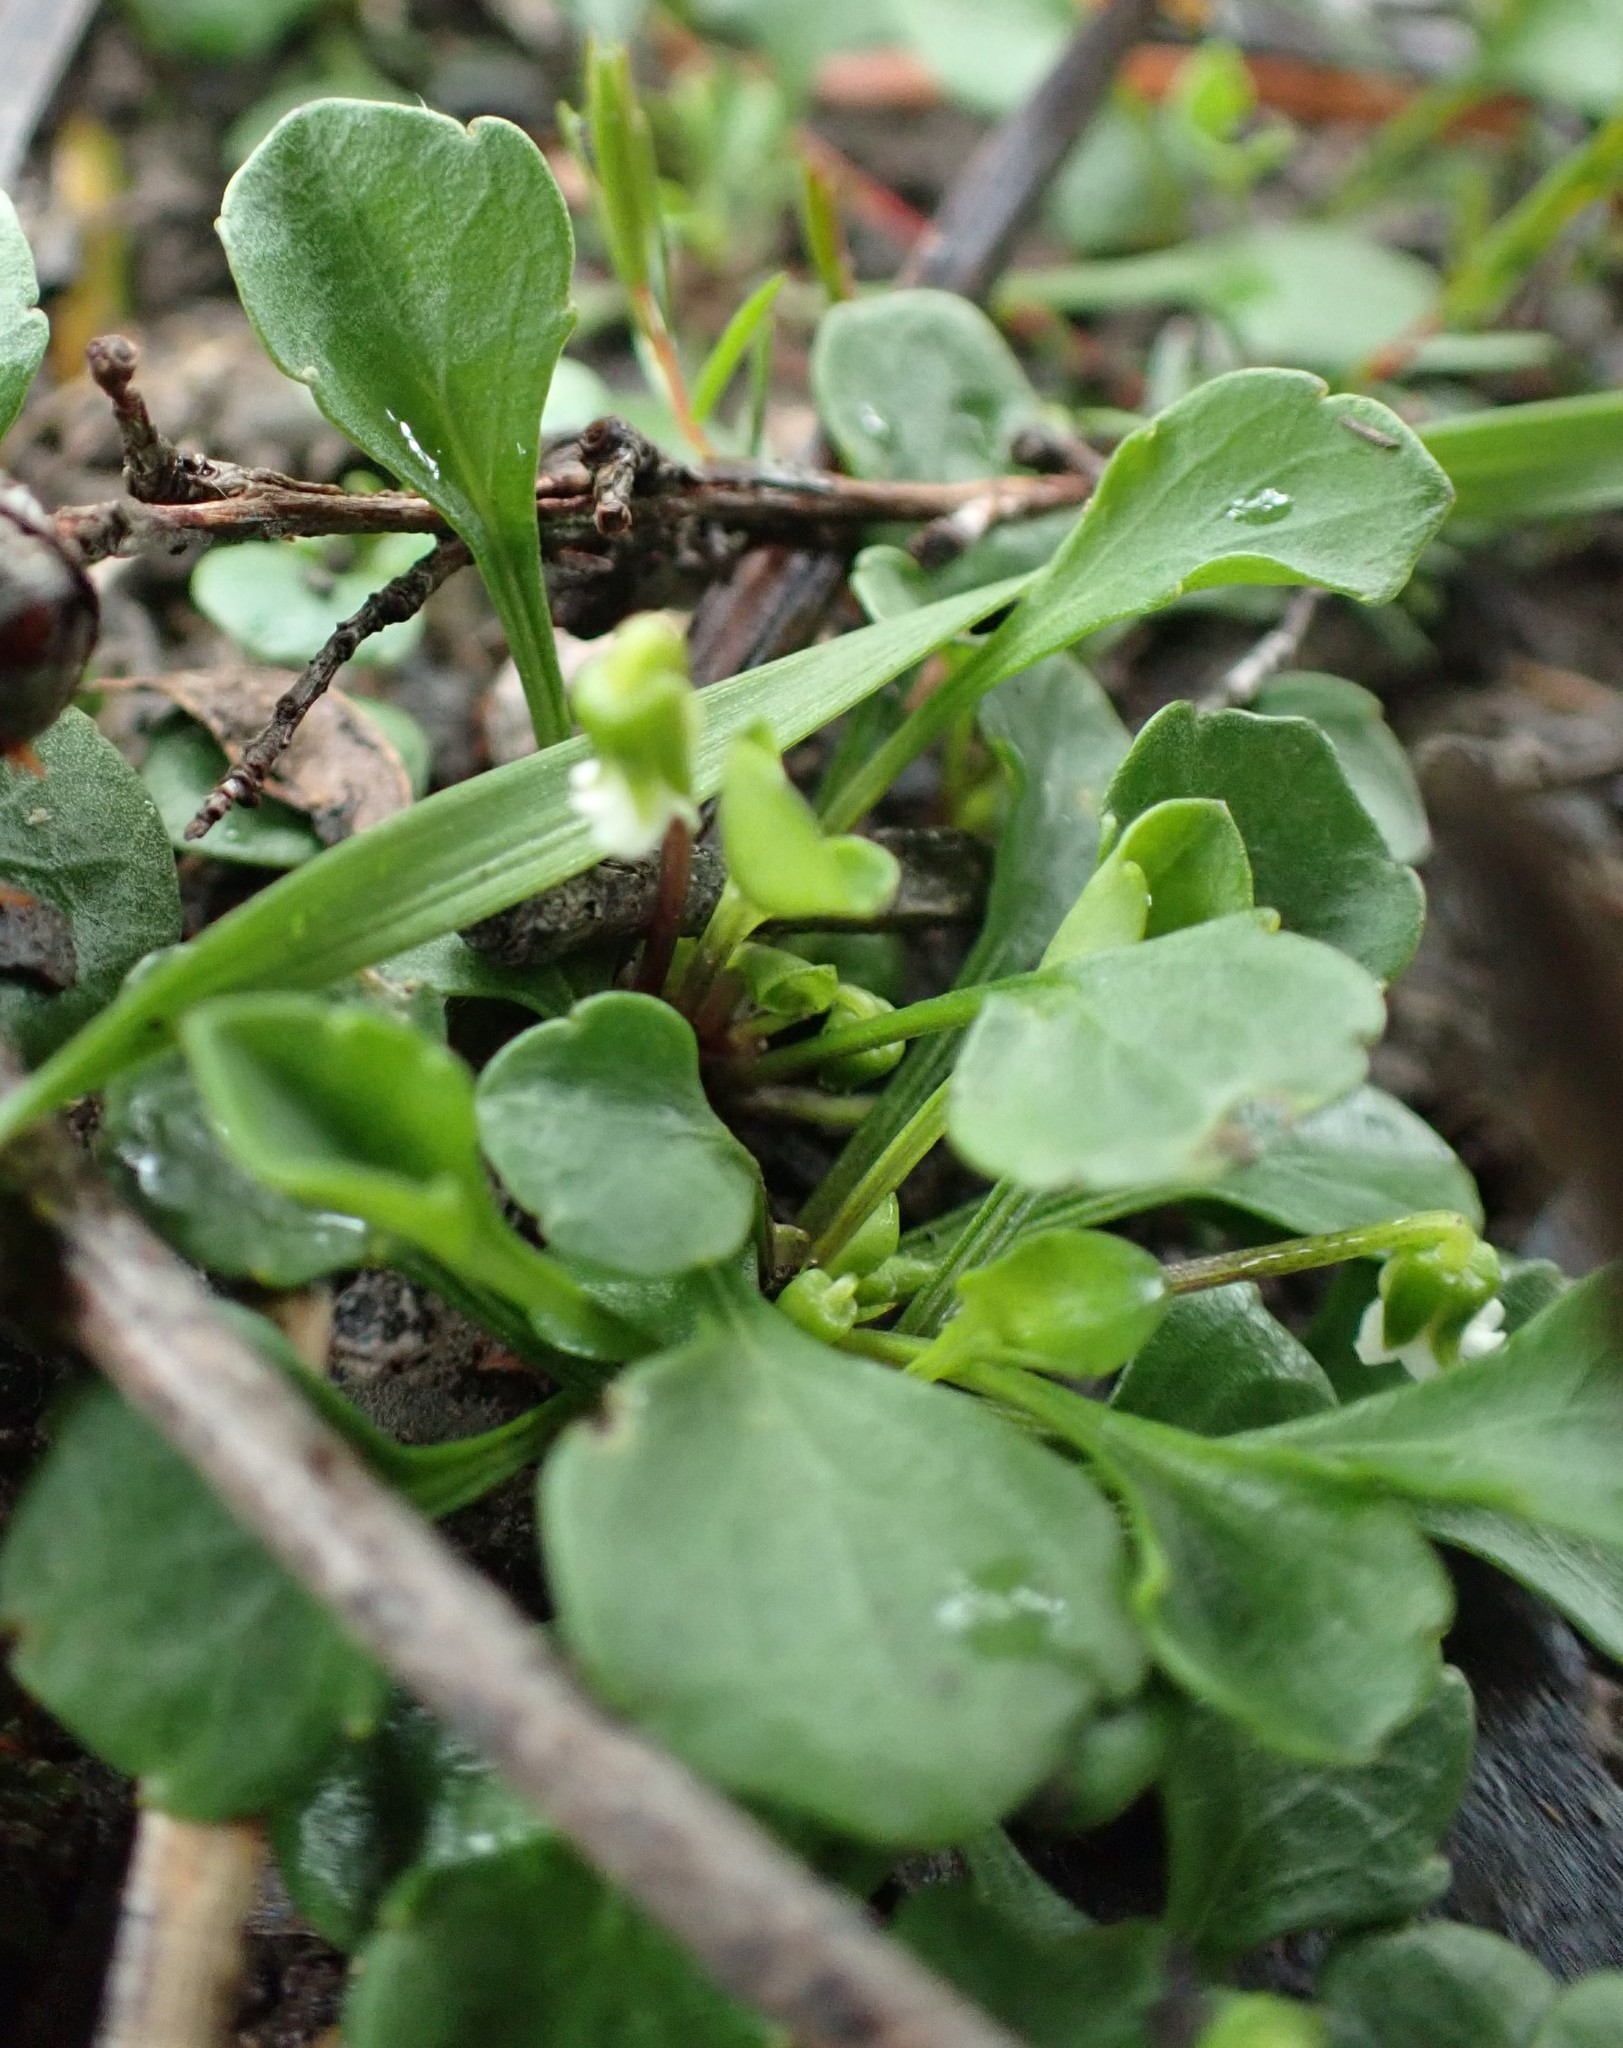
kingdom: Plantae
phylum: Tracheophyta
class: Magnoliopsida
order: Malpighiales
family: Violaceae
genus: Viola
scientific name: Viola cleistogamoides
